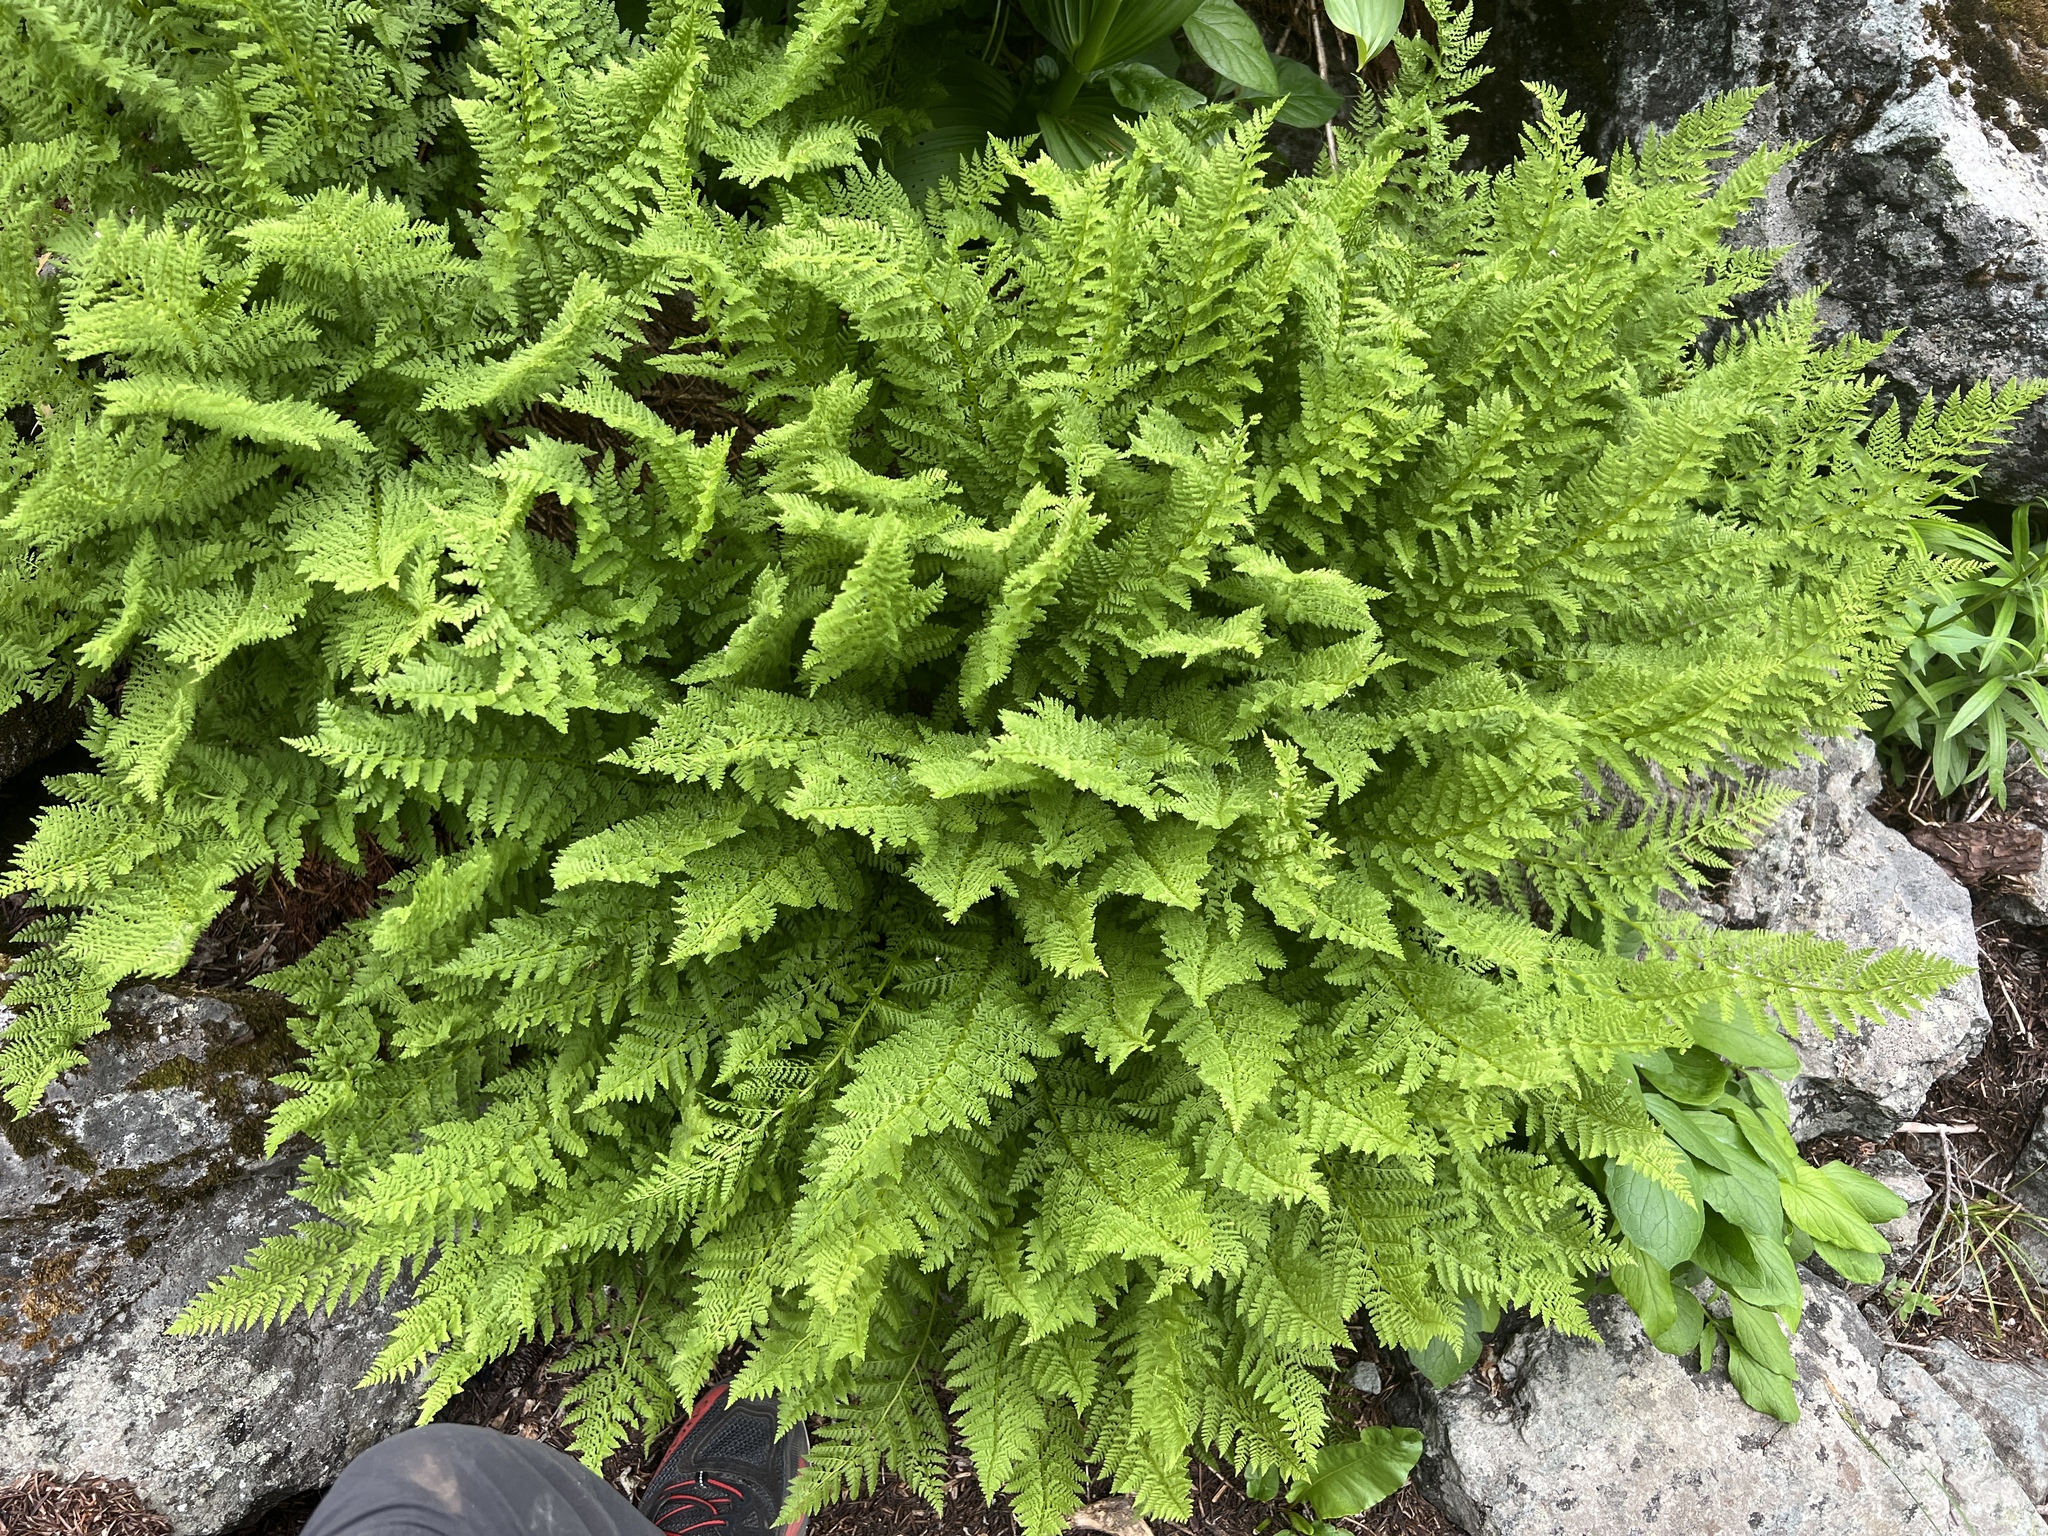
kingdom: Plantae
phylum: Tracheophyta
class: Polypodiopsida
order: Polypodiales
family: Athyriaceae
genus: Athyrium
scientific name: Athyrium americanum
